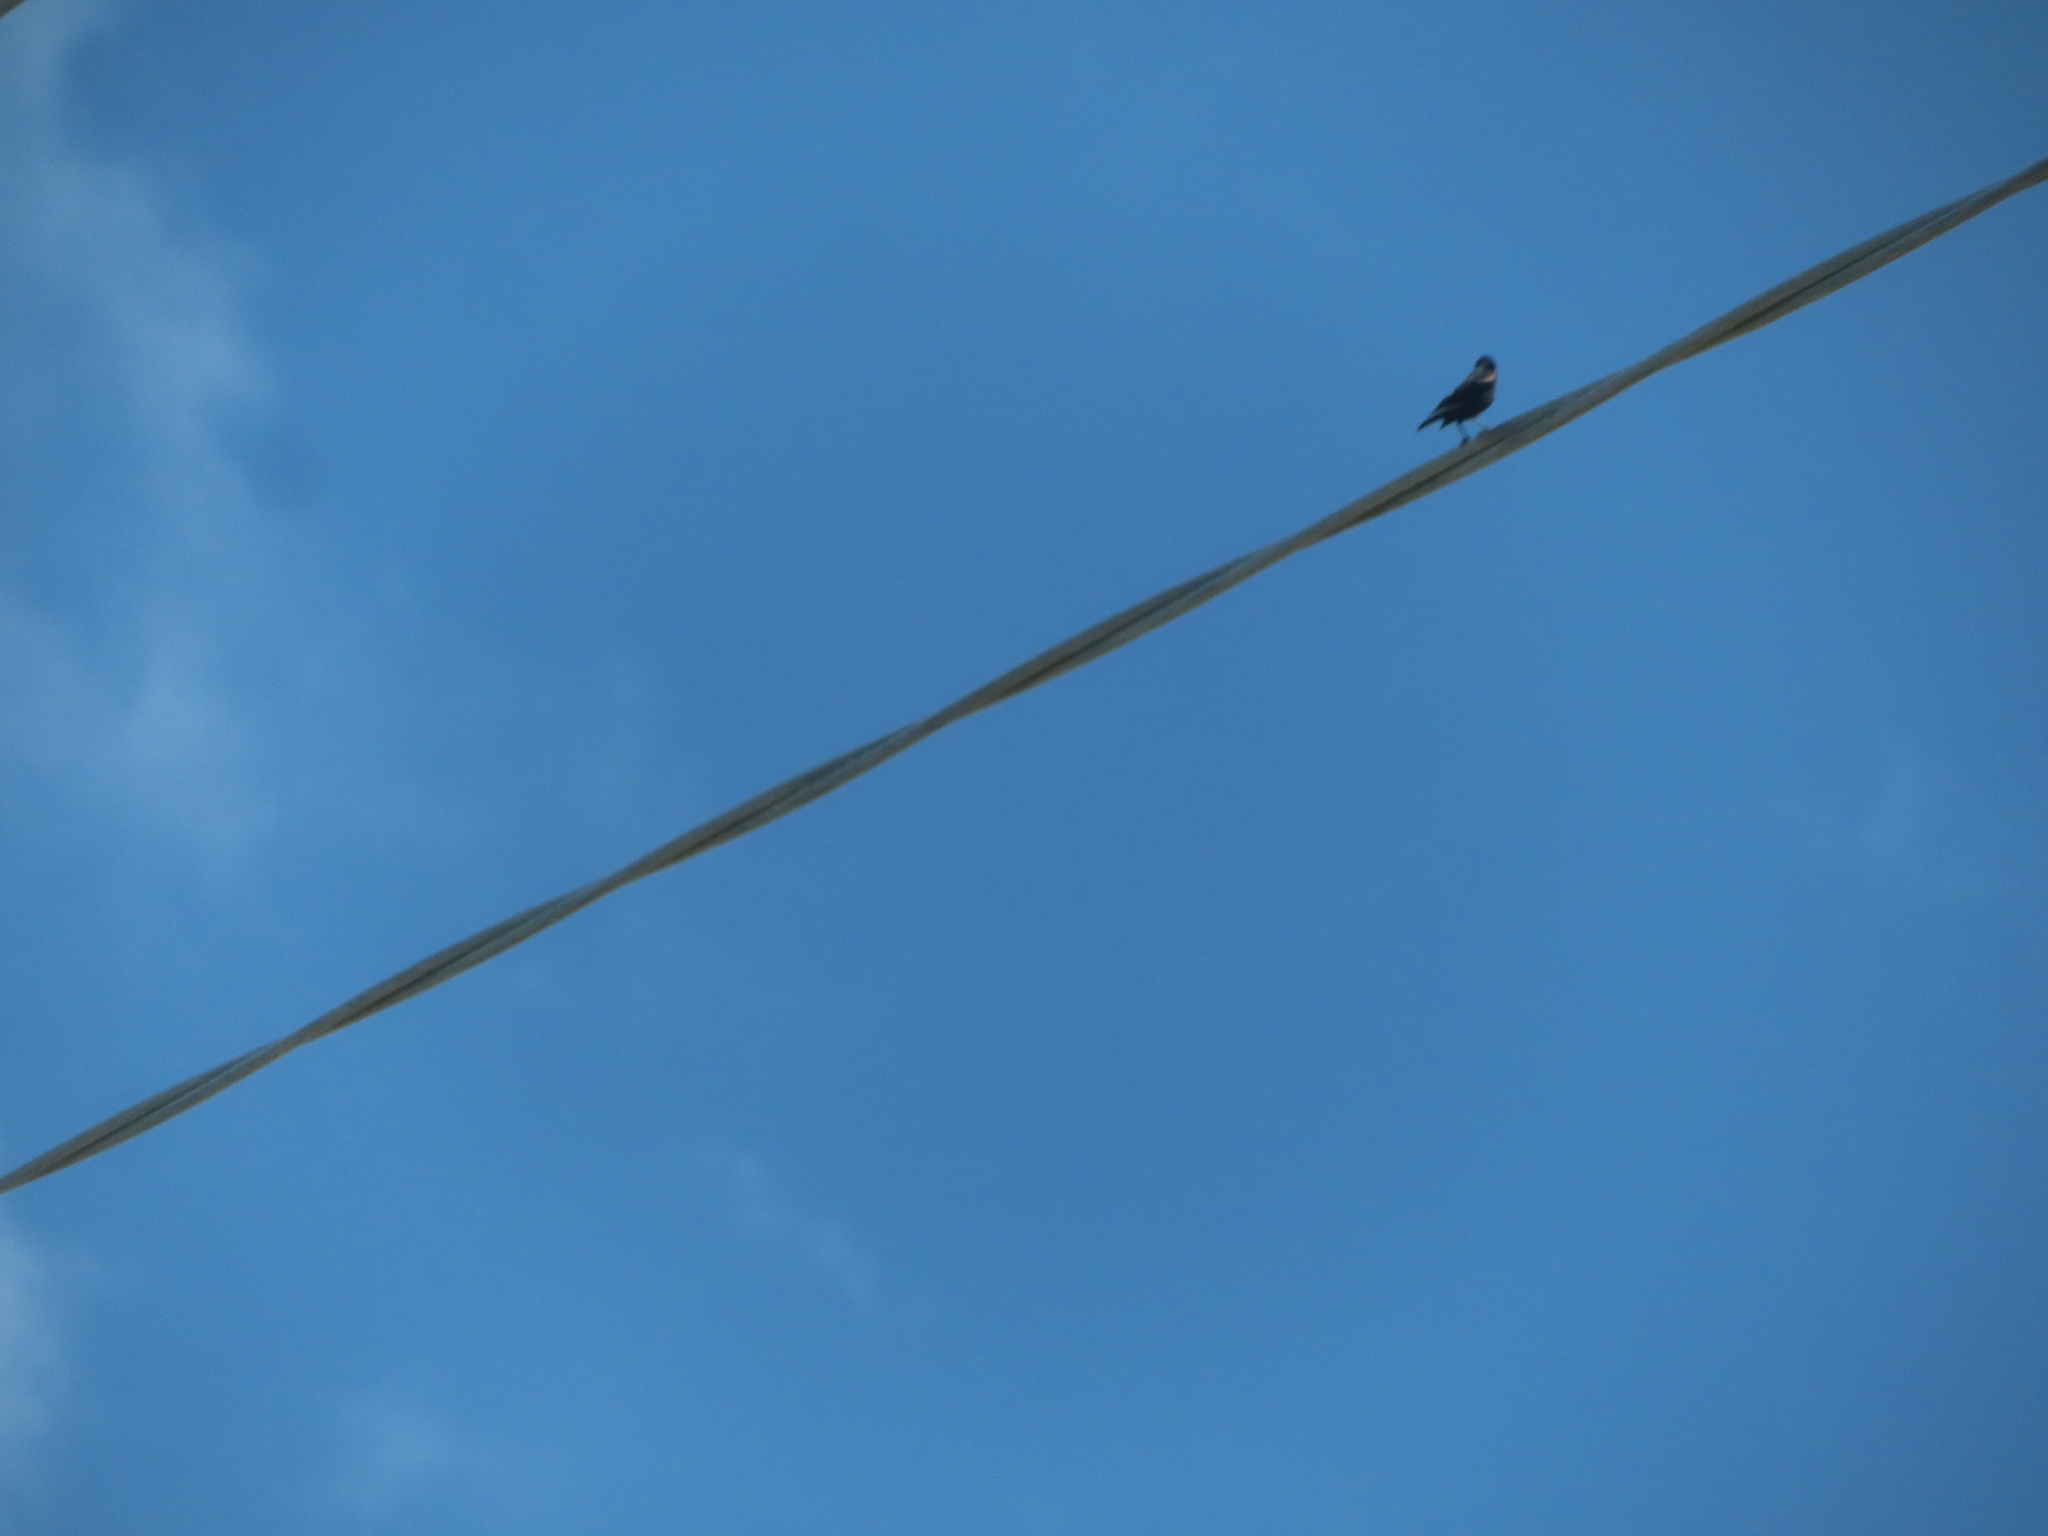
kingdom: Animalia
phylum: Chordata
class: Aves
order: Passeriformes
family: Icteridae
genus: Agelaius
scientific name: Agelaius phoeniceus
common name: Red-winged blackbird
